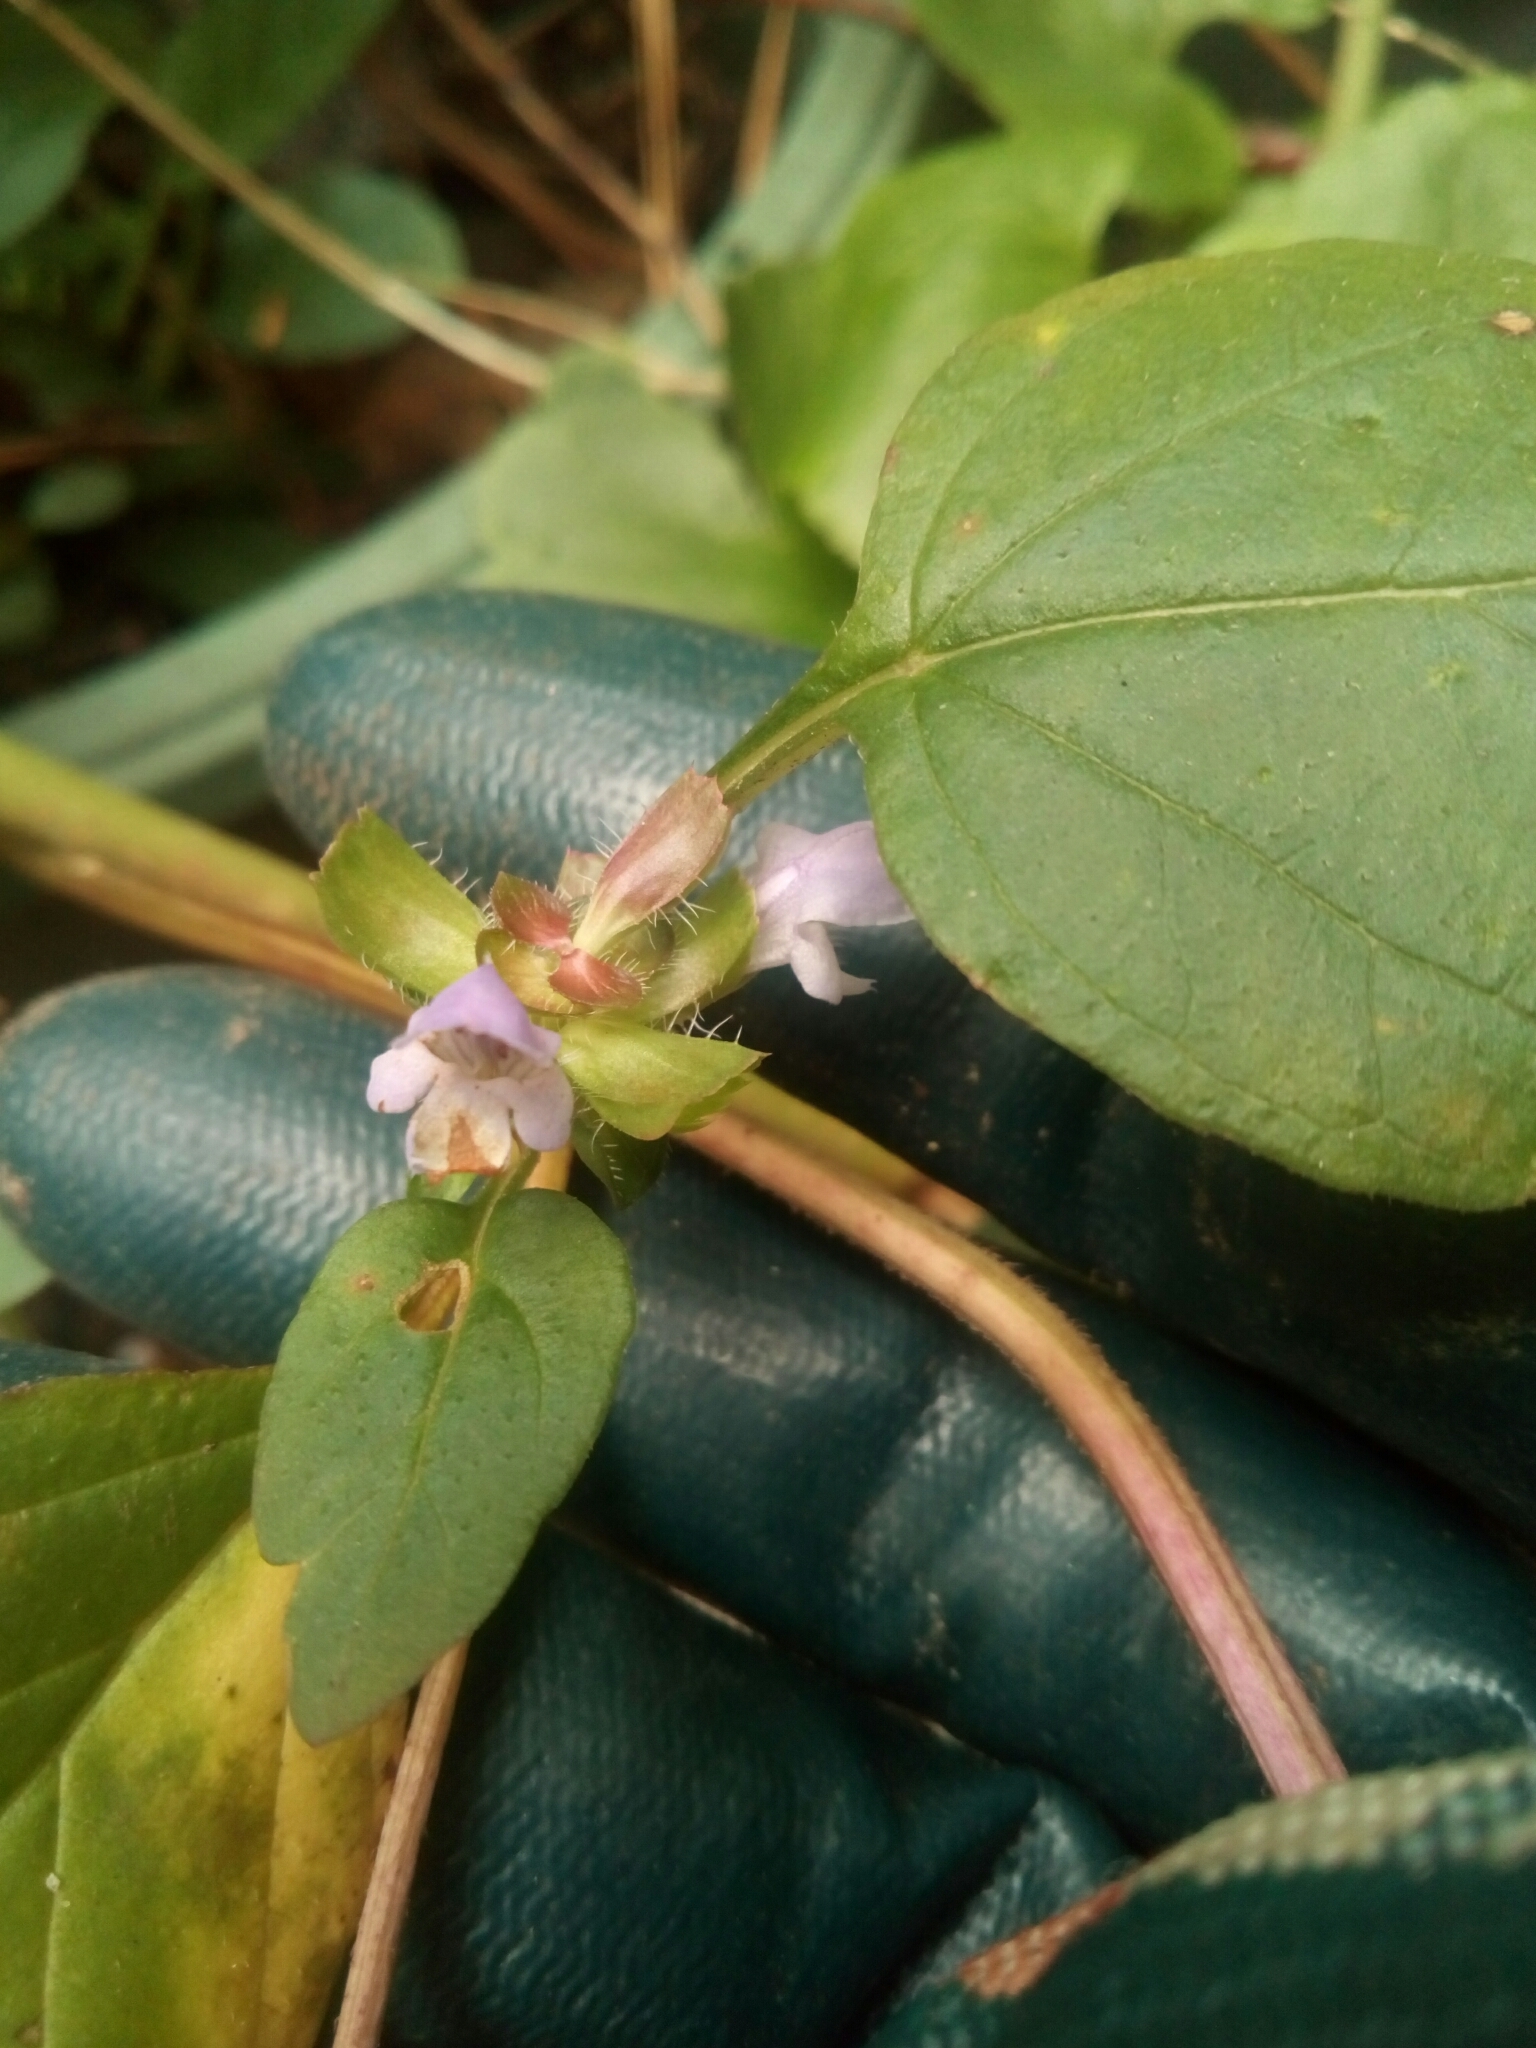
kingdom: Plantae
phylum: Tracheophyta
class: Magnoliopsida
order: Lamiales
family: Lamiaceae
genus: Prunella
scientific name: Prunella vulgaris
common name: Heal-all
